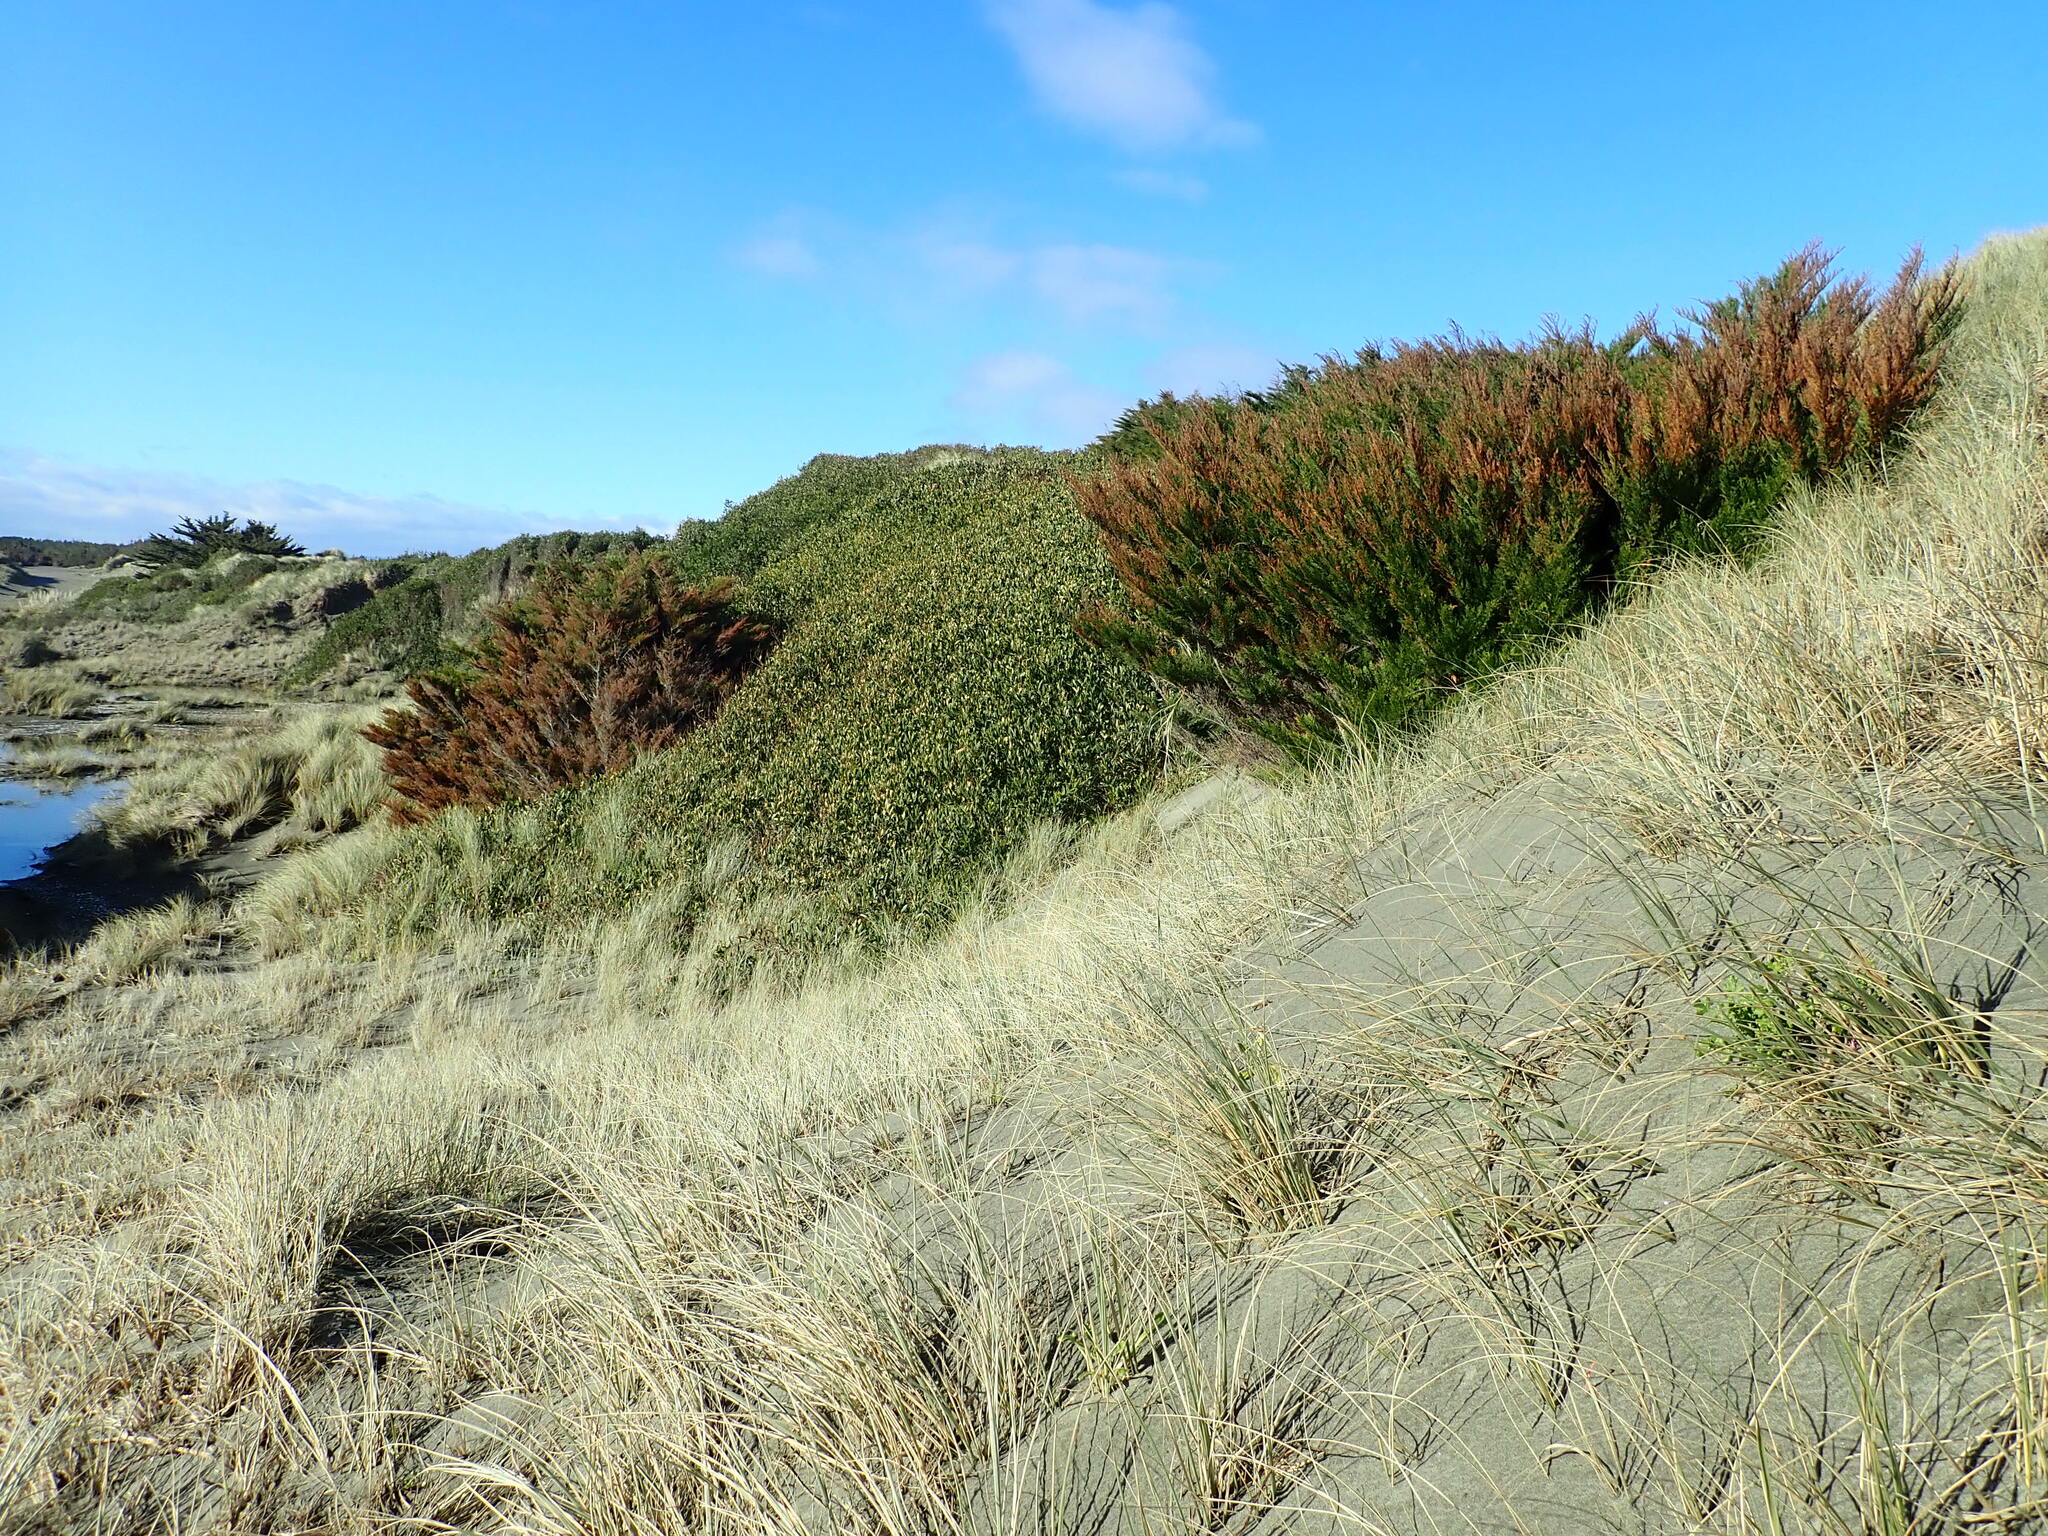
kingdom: Plantae
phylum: Tracheophyta
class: Pinopsida
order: Pinales
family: Cupressaceae
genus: Cupressus
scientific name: Cupressus macrocarpa
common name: Monterey cypress
